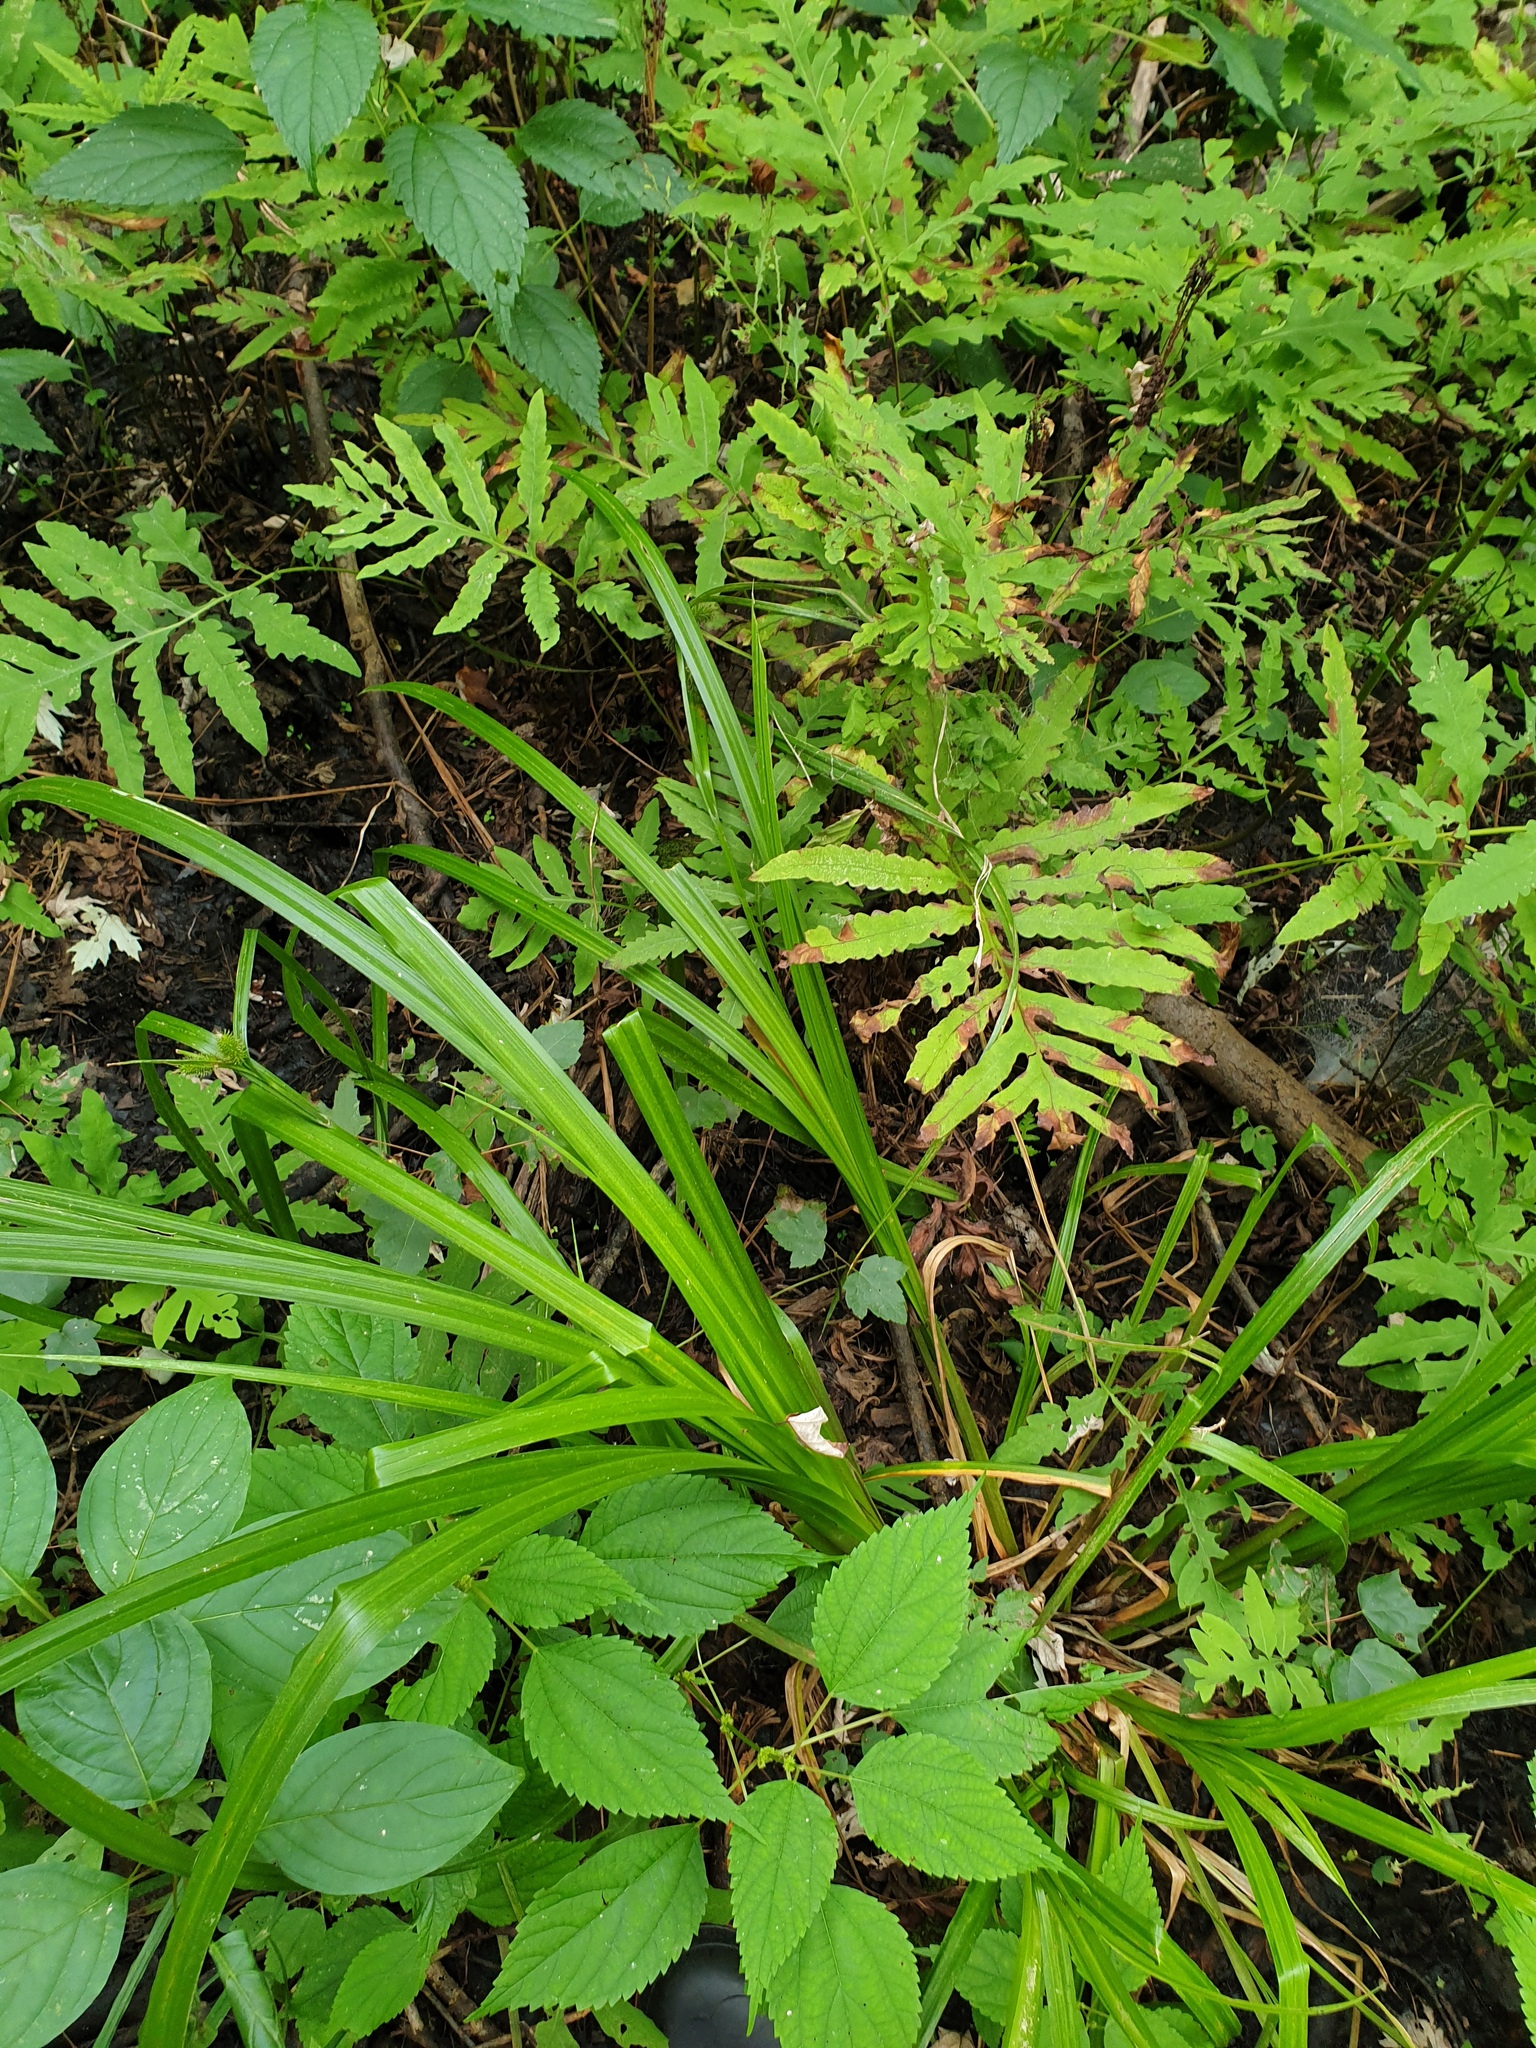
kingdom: Plantae
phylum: Tracheophyta
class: Liliopsida
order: Poales
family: Cyperaceae
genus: Carex
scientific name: Carex comosa
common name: Bristly sedge
